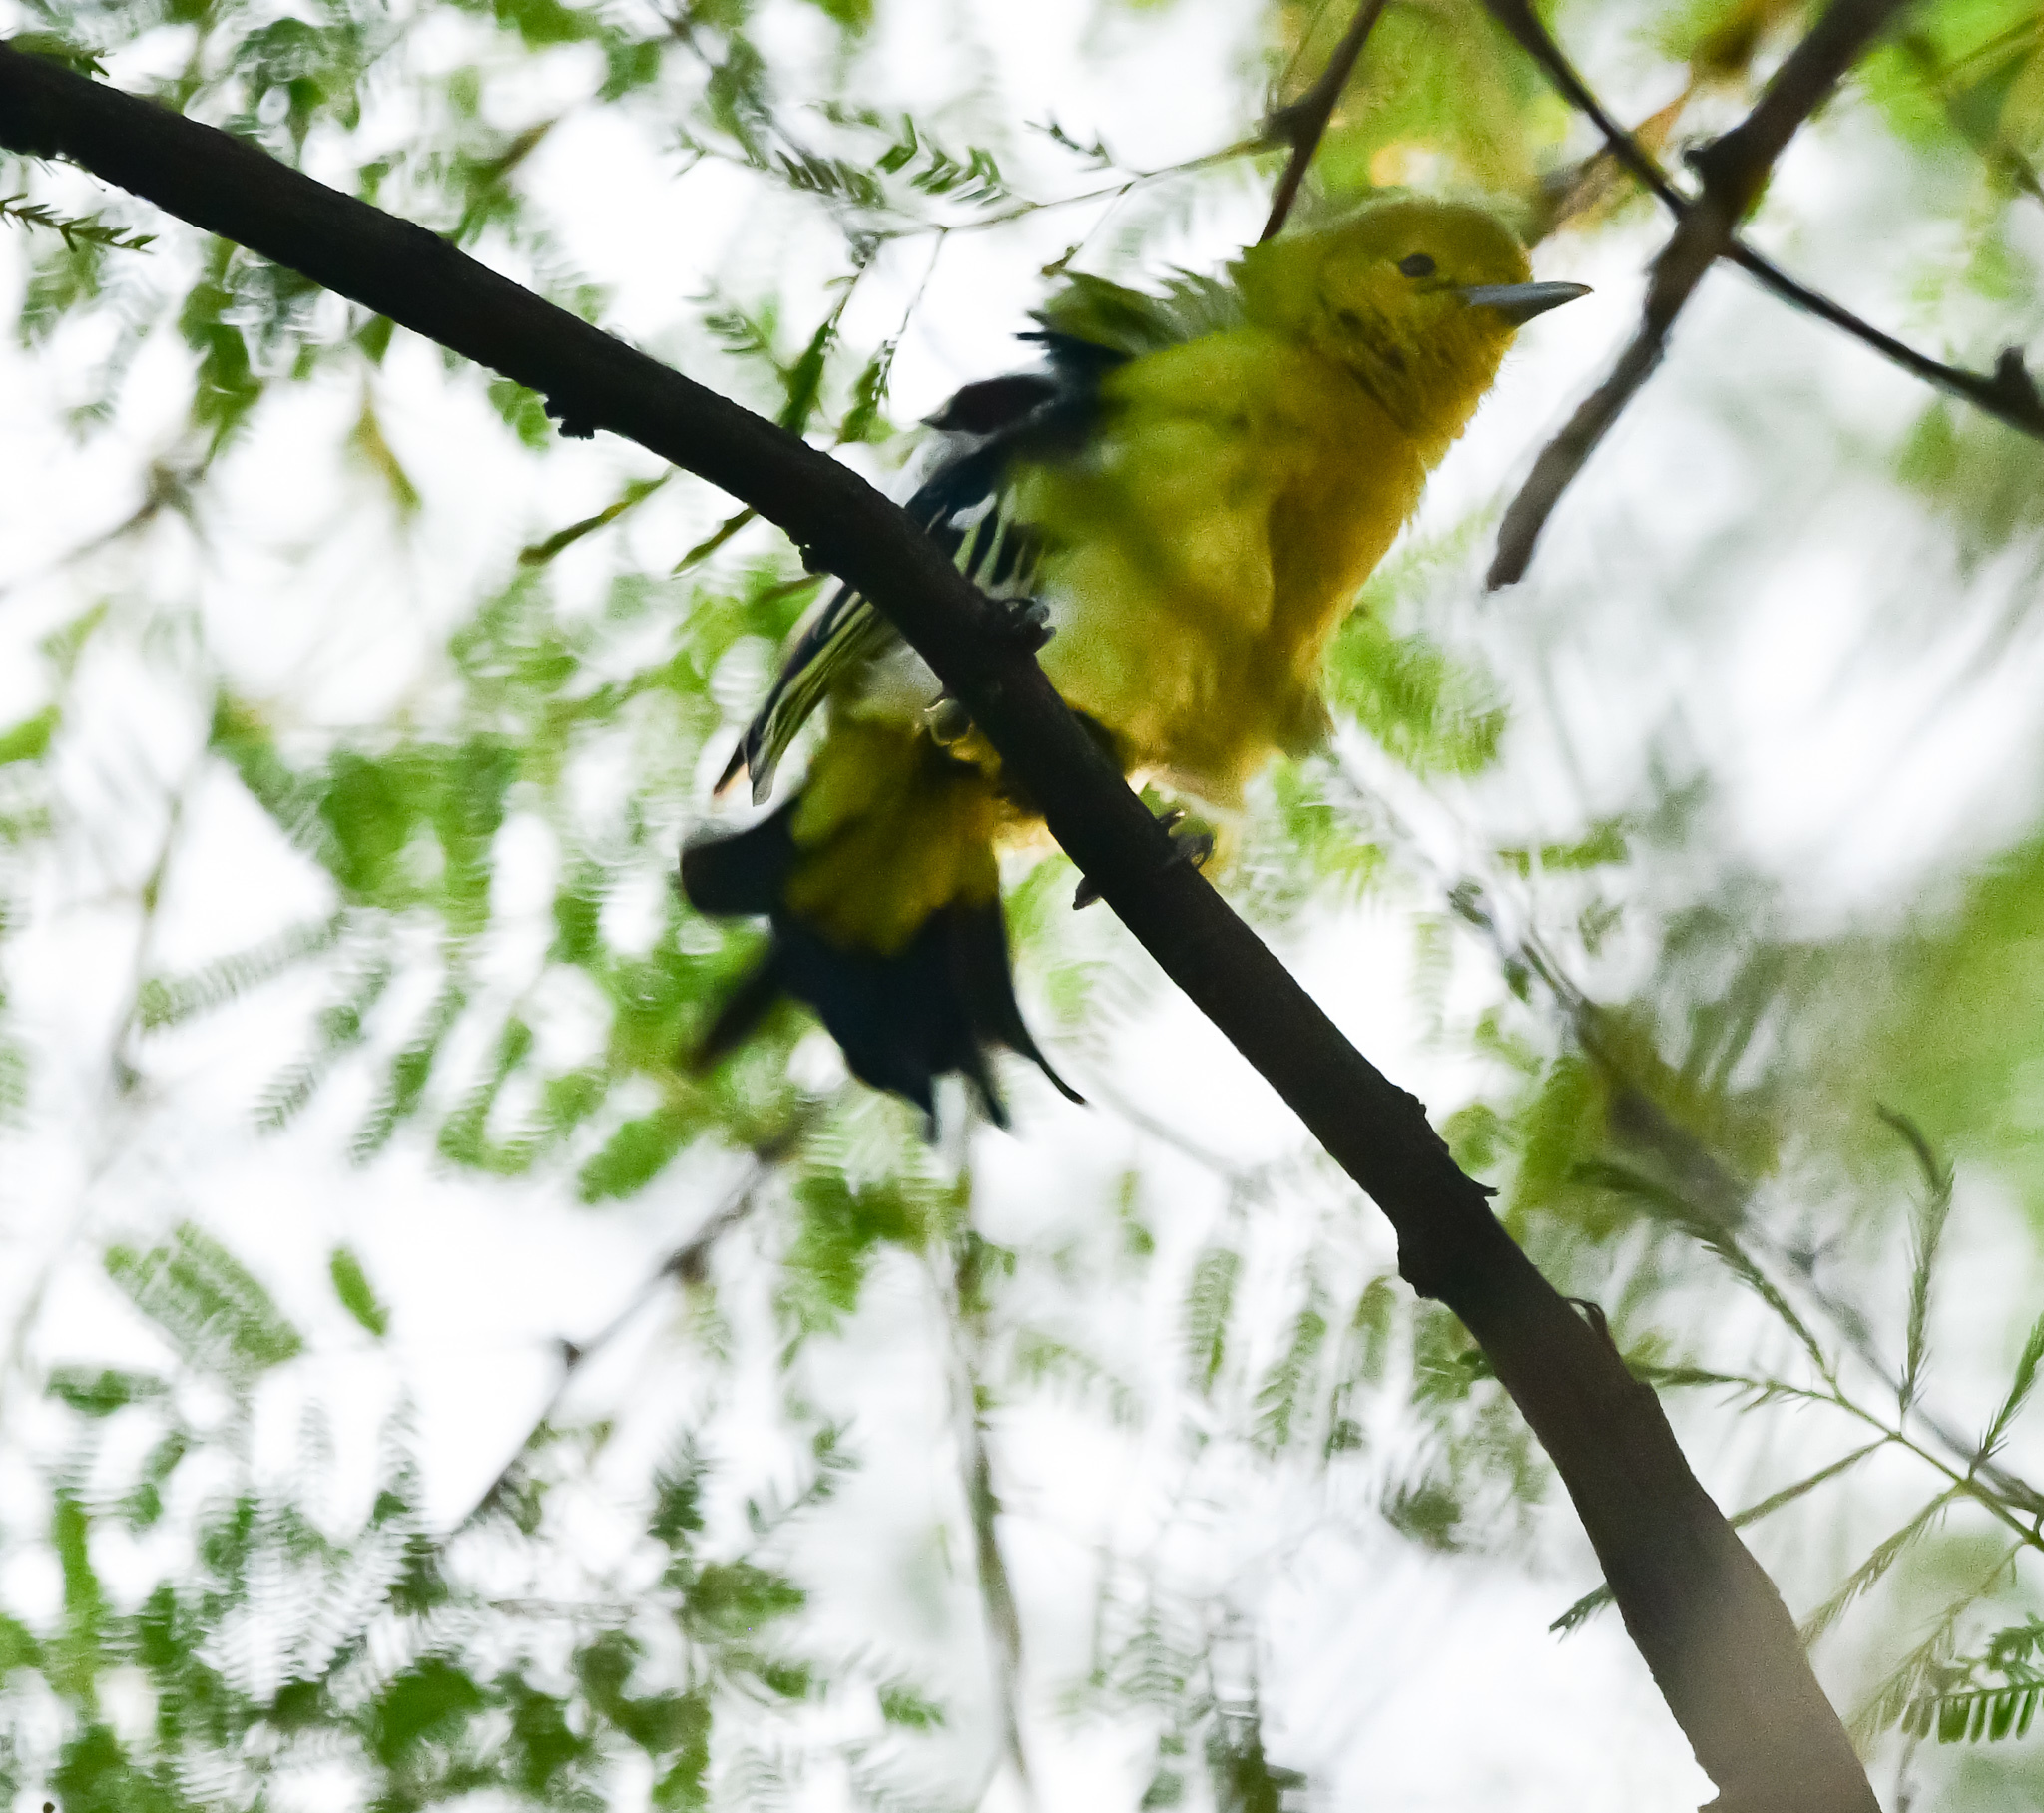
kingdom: Animalia
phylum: Chordata
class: Aves
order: Passeriformes
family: Aegithinidae
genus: Aegithina
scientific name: Aegithina tiphia
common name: Common iora
